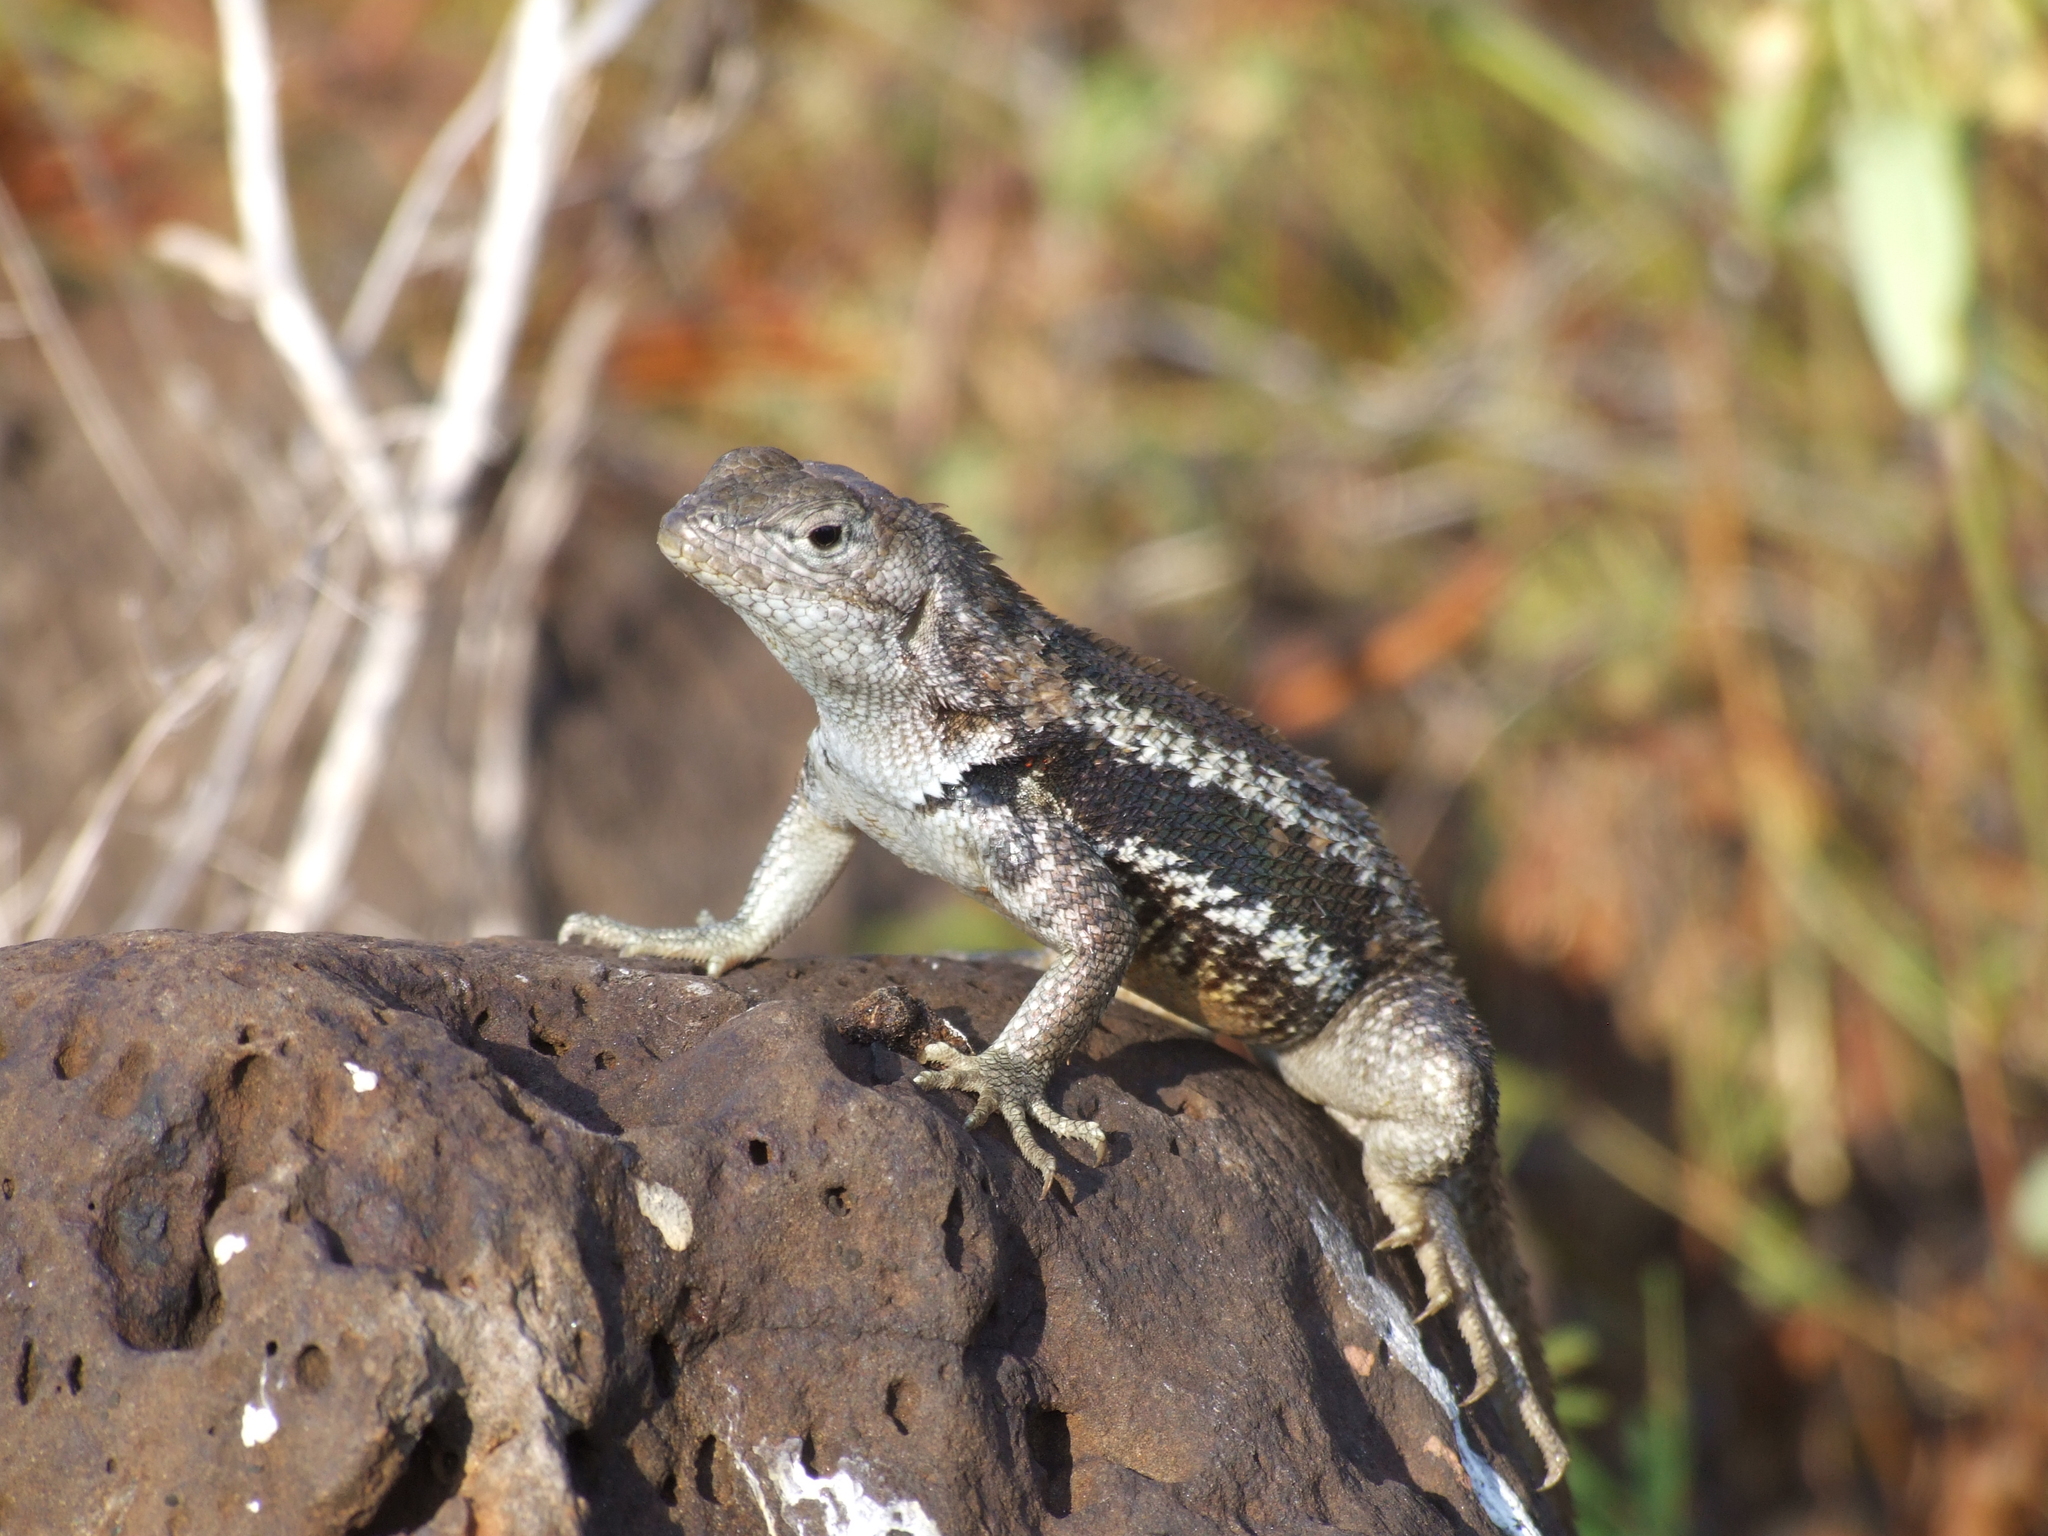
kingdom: Animalia
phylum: Chordata
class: Squamata
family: Tropiduridae
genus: Microlophus
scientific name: Microlophus bivittatus
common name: San cristobal lava lizard
